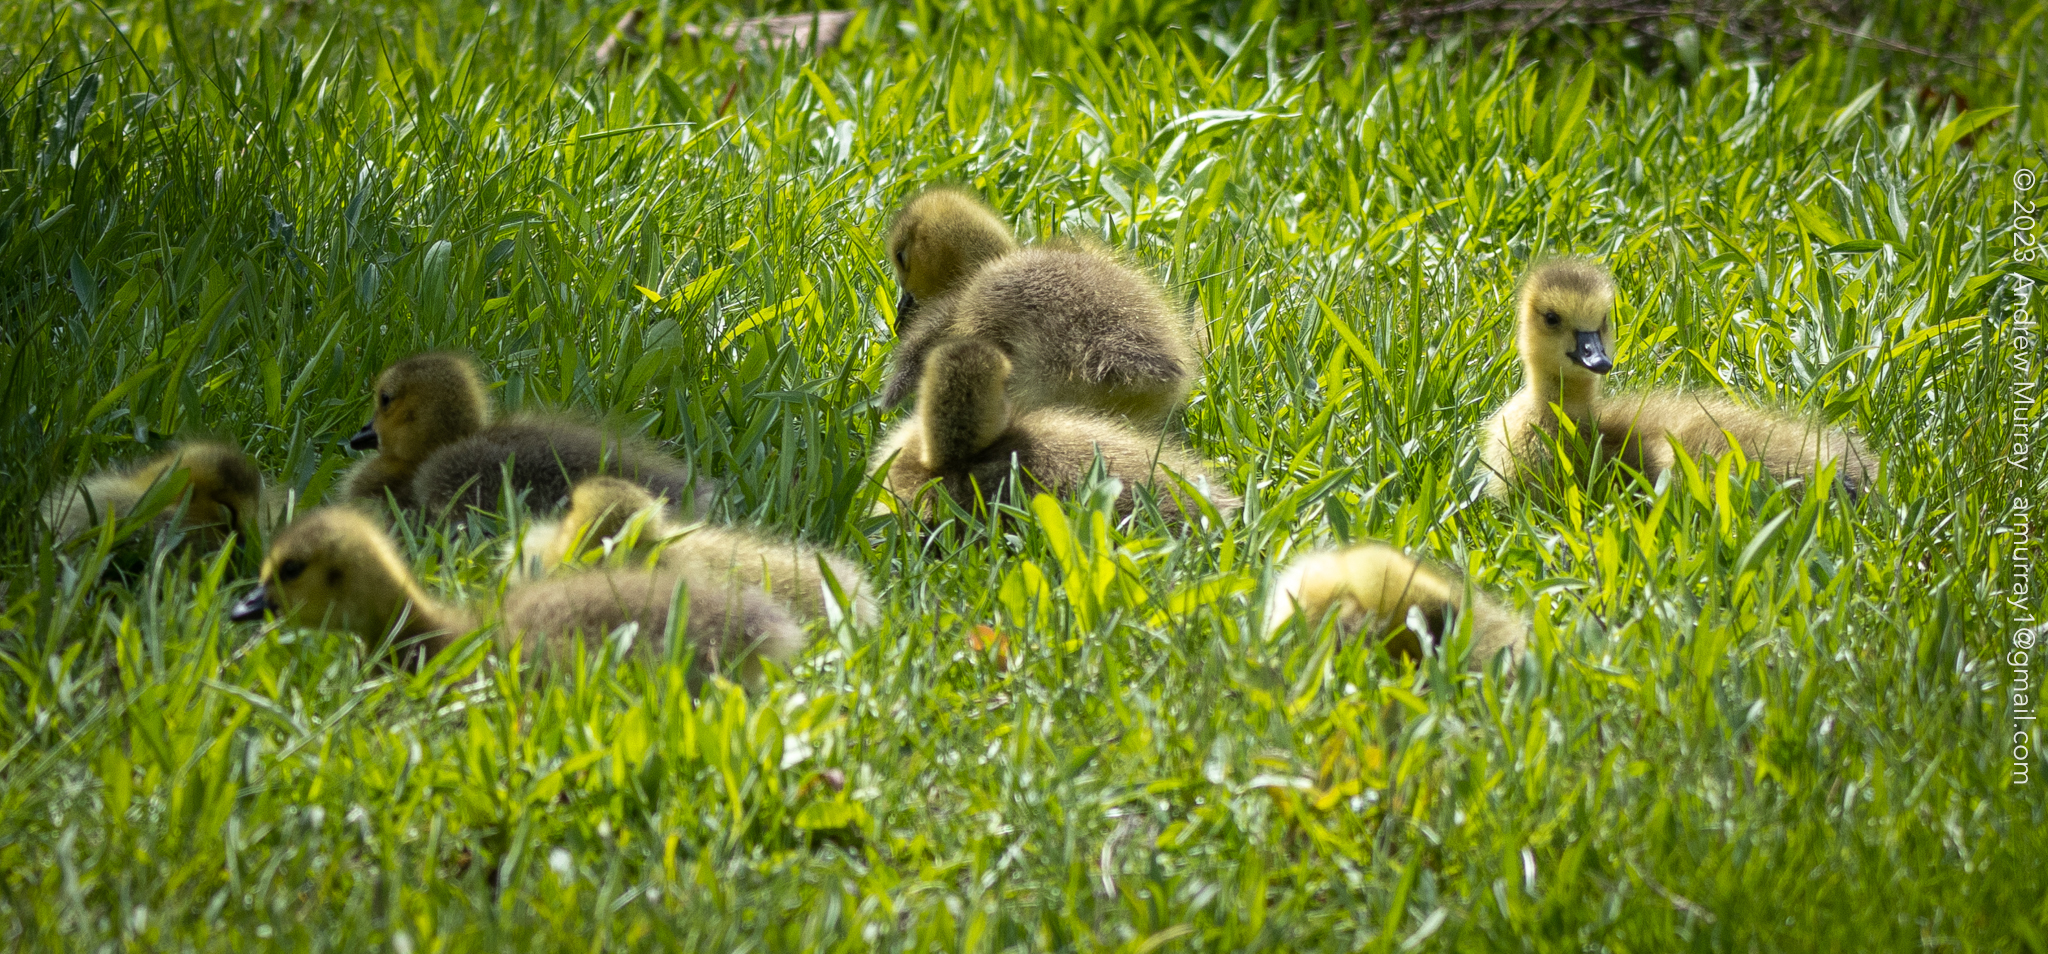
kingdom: Animalia
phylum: Chordata
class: Aves
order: Anseriformes
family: Anatidae
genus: Branta
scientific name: Branta canadensis
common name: Canada goose
